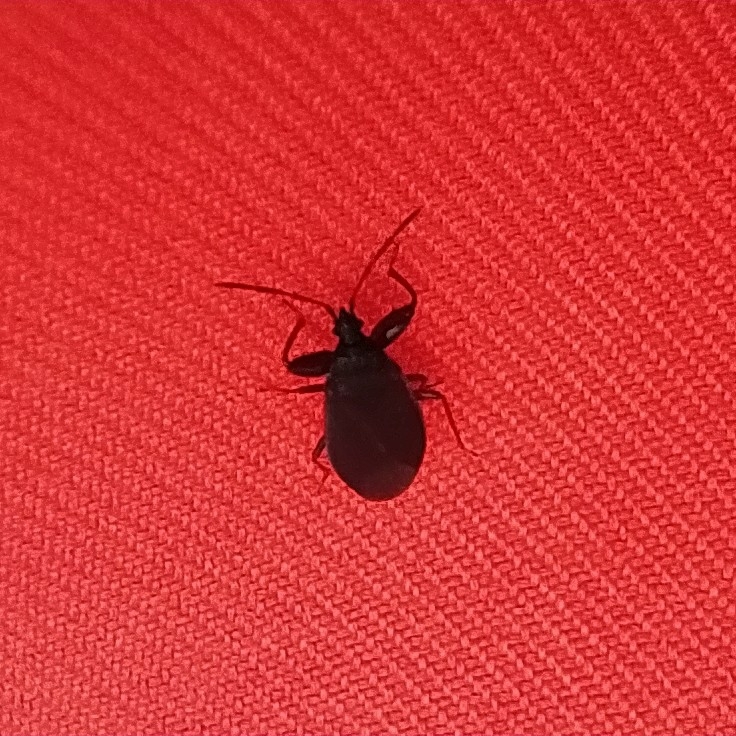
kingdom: Animalia
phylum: Arthropoda
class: Insecta
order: Hemiptera
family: Rhyparochromidae
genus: Gastrodes
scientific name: Gastrodes grossipes
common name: Pine cone bug
